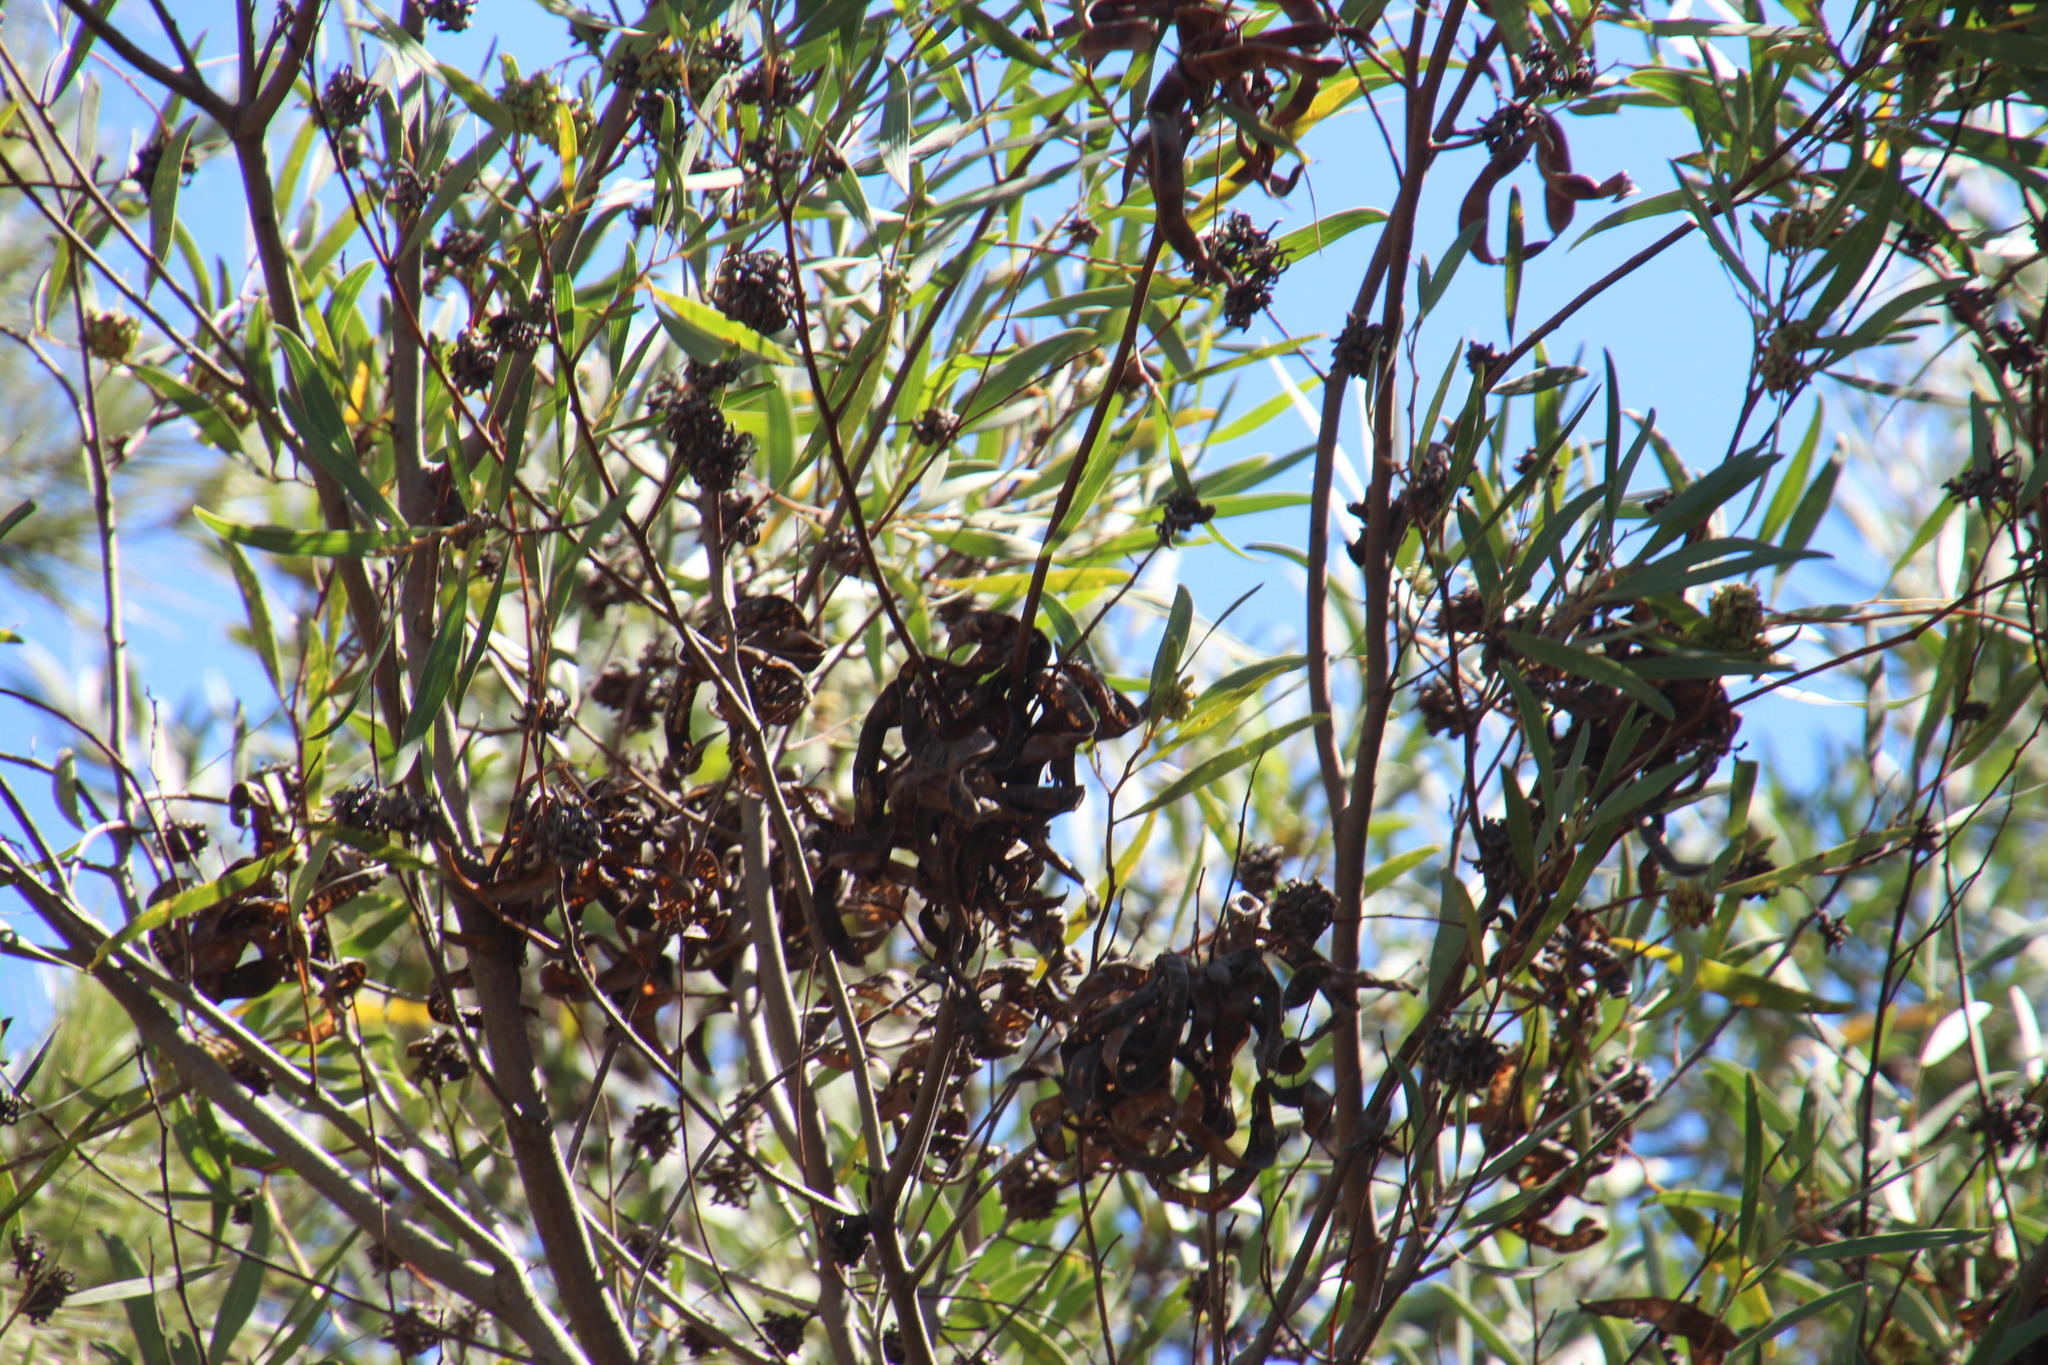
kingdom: Animalia
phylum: Arthropoda
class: Insecta
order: Diptera
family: Cecidomyiidae
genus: Dasineura
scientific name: Dasineura dielsi
